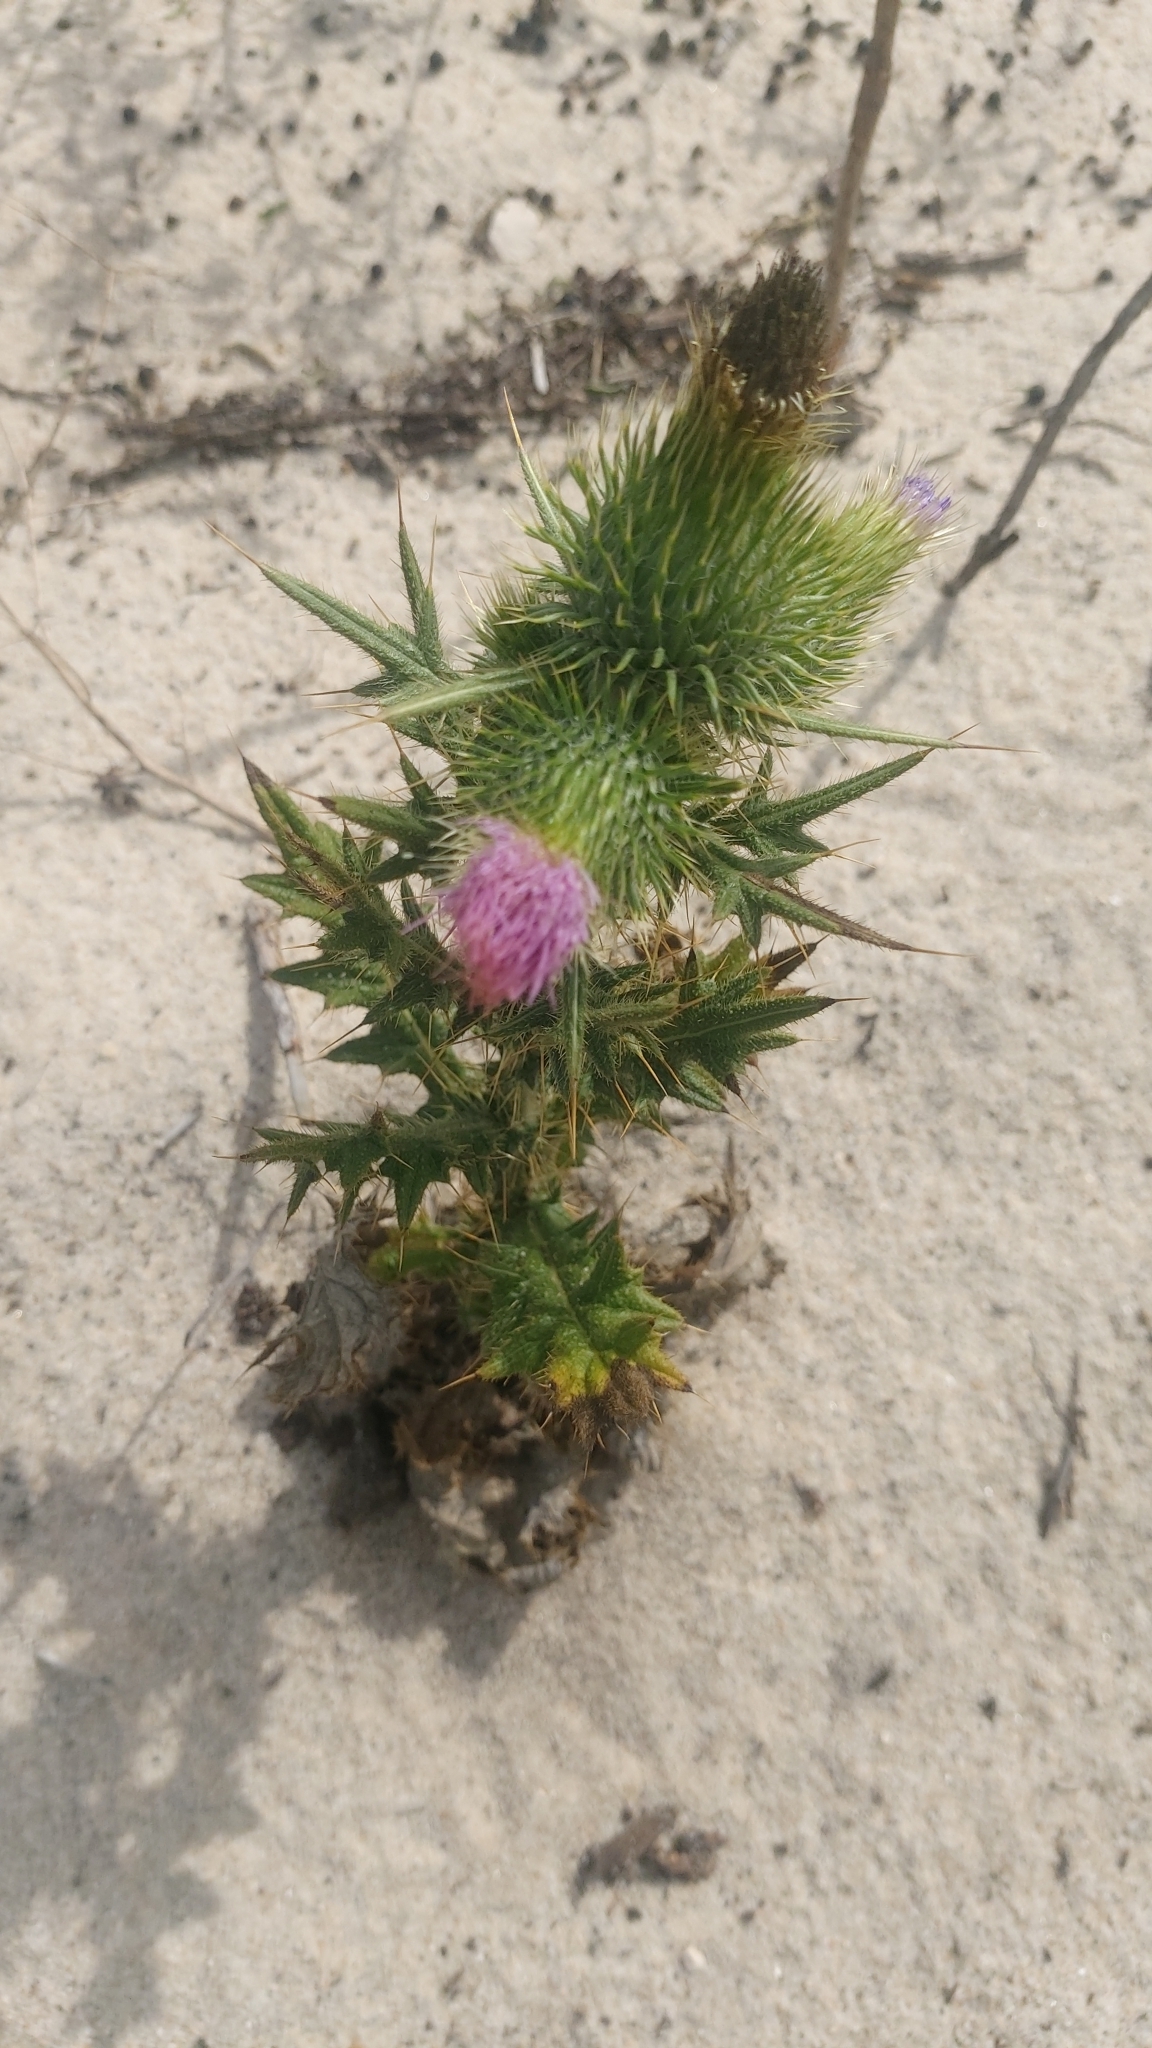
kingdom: Plantae
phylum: Tracheophyta
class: Magnoliopsida
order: Asterales
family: Asteraceae
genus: Cirsium
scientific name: Cirsium vulgare
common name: Bull thistle
